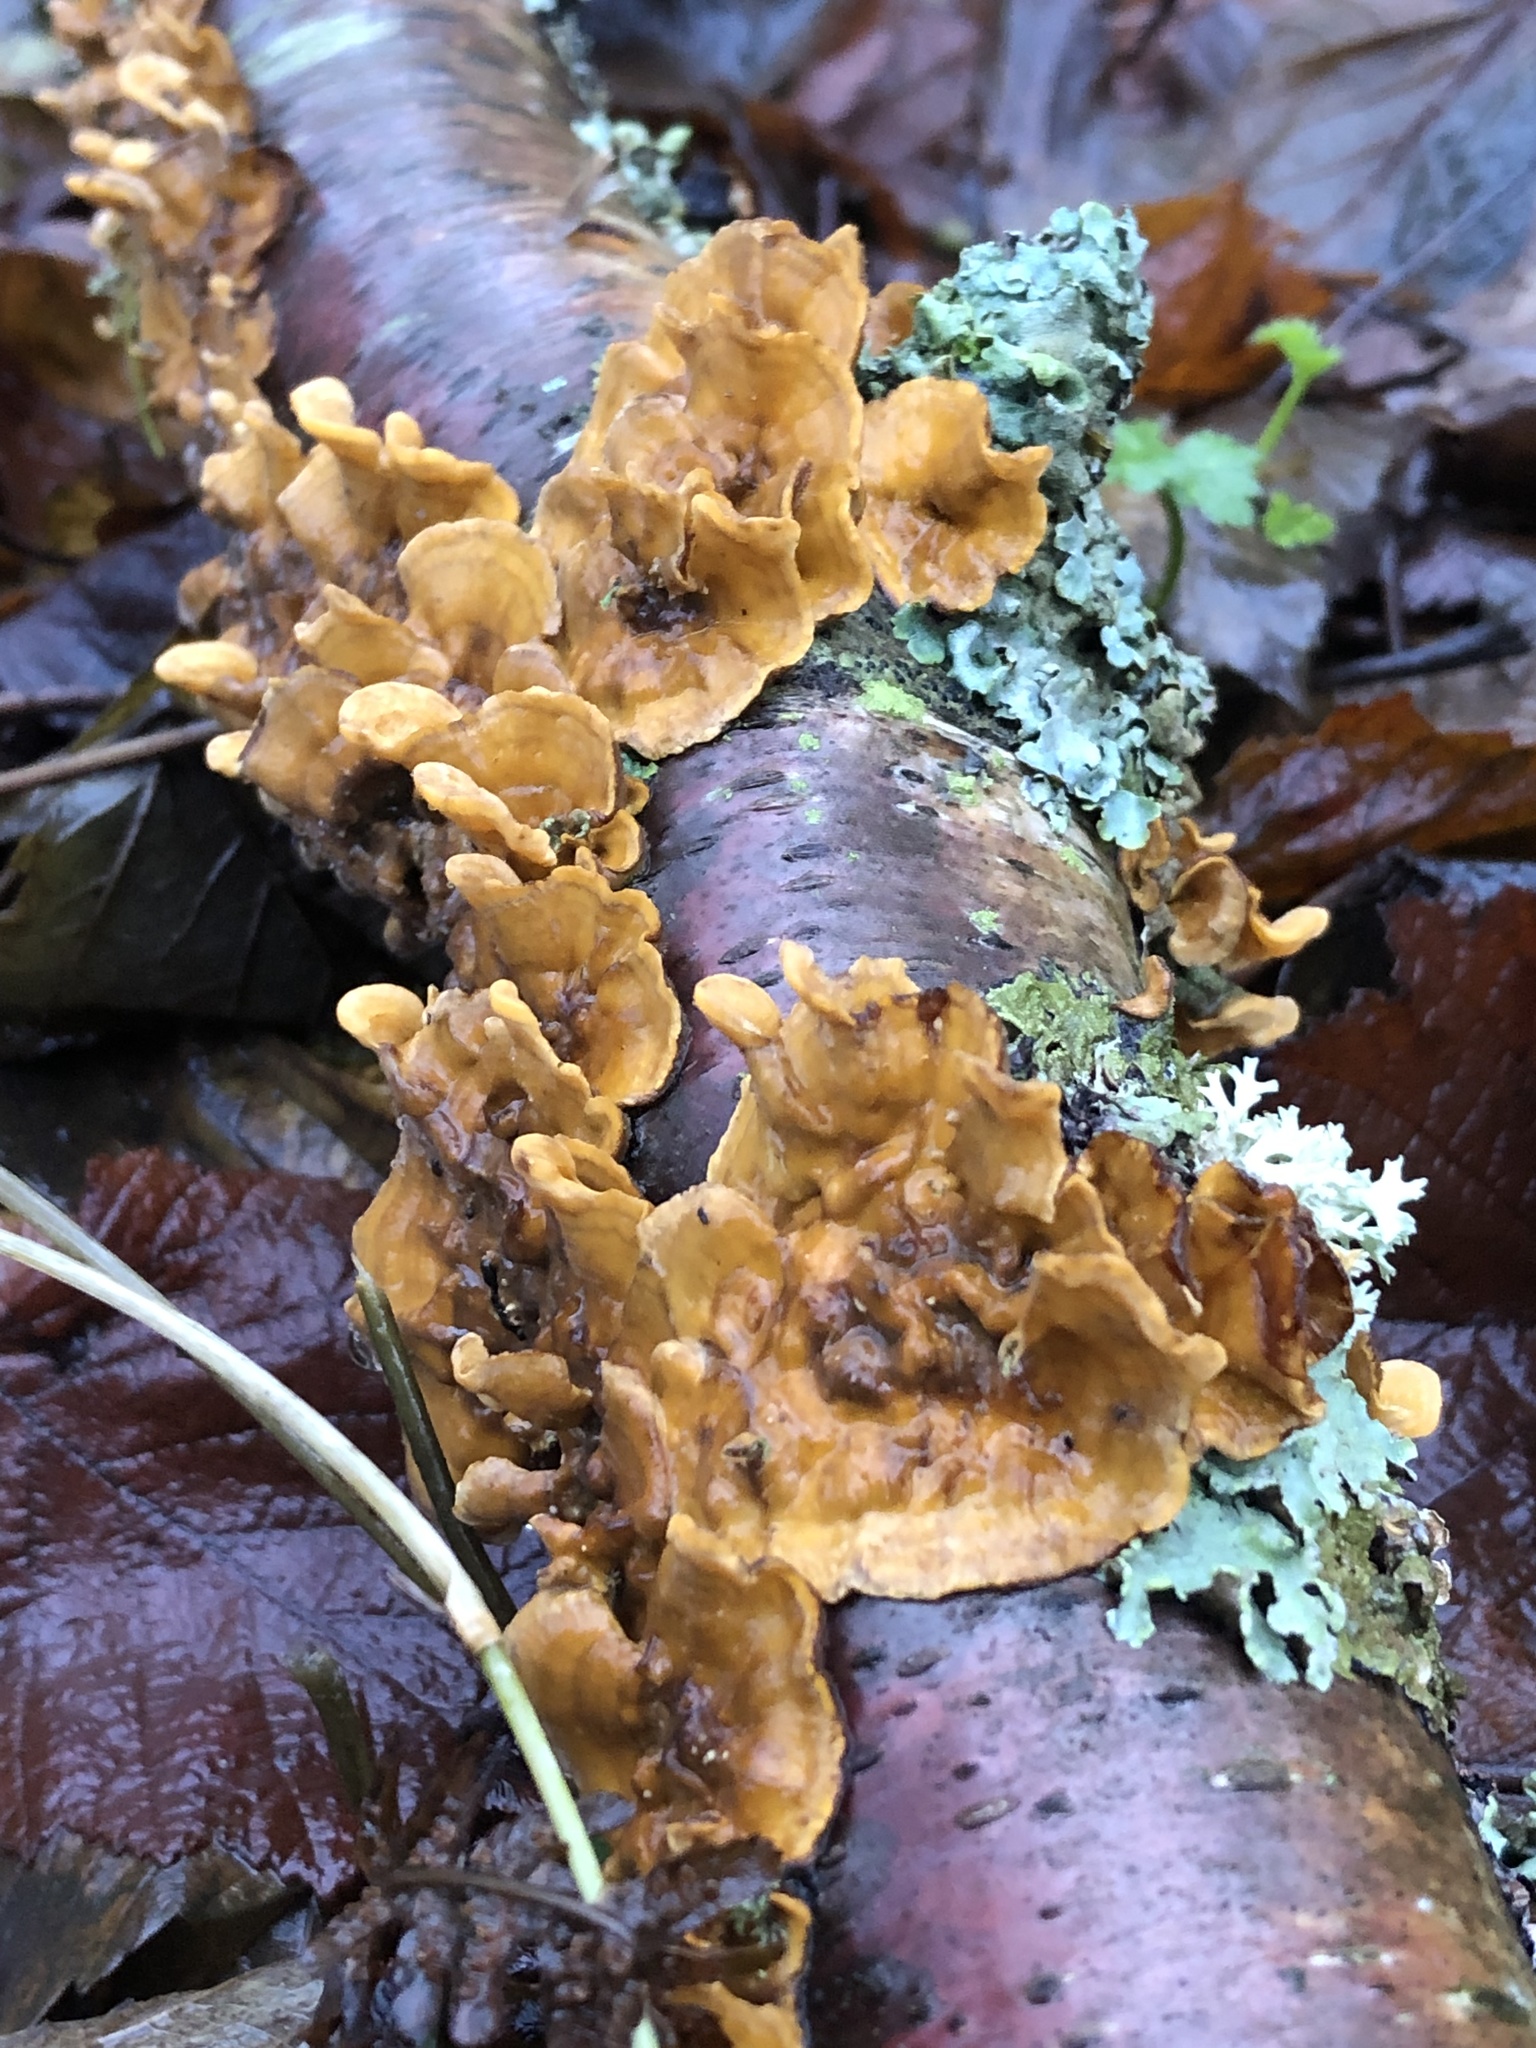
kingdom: Fungi
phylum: Basidiomycota
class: Agaricomycetes
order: Russulales
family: Stereaceae
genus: Stereum
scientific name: Stereum hirsutum
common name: Hairy curtain crust
